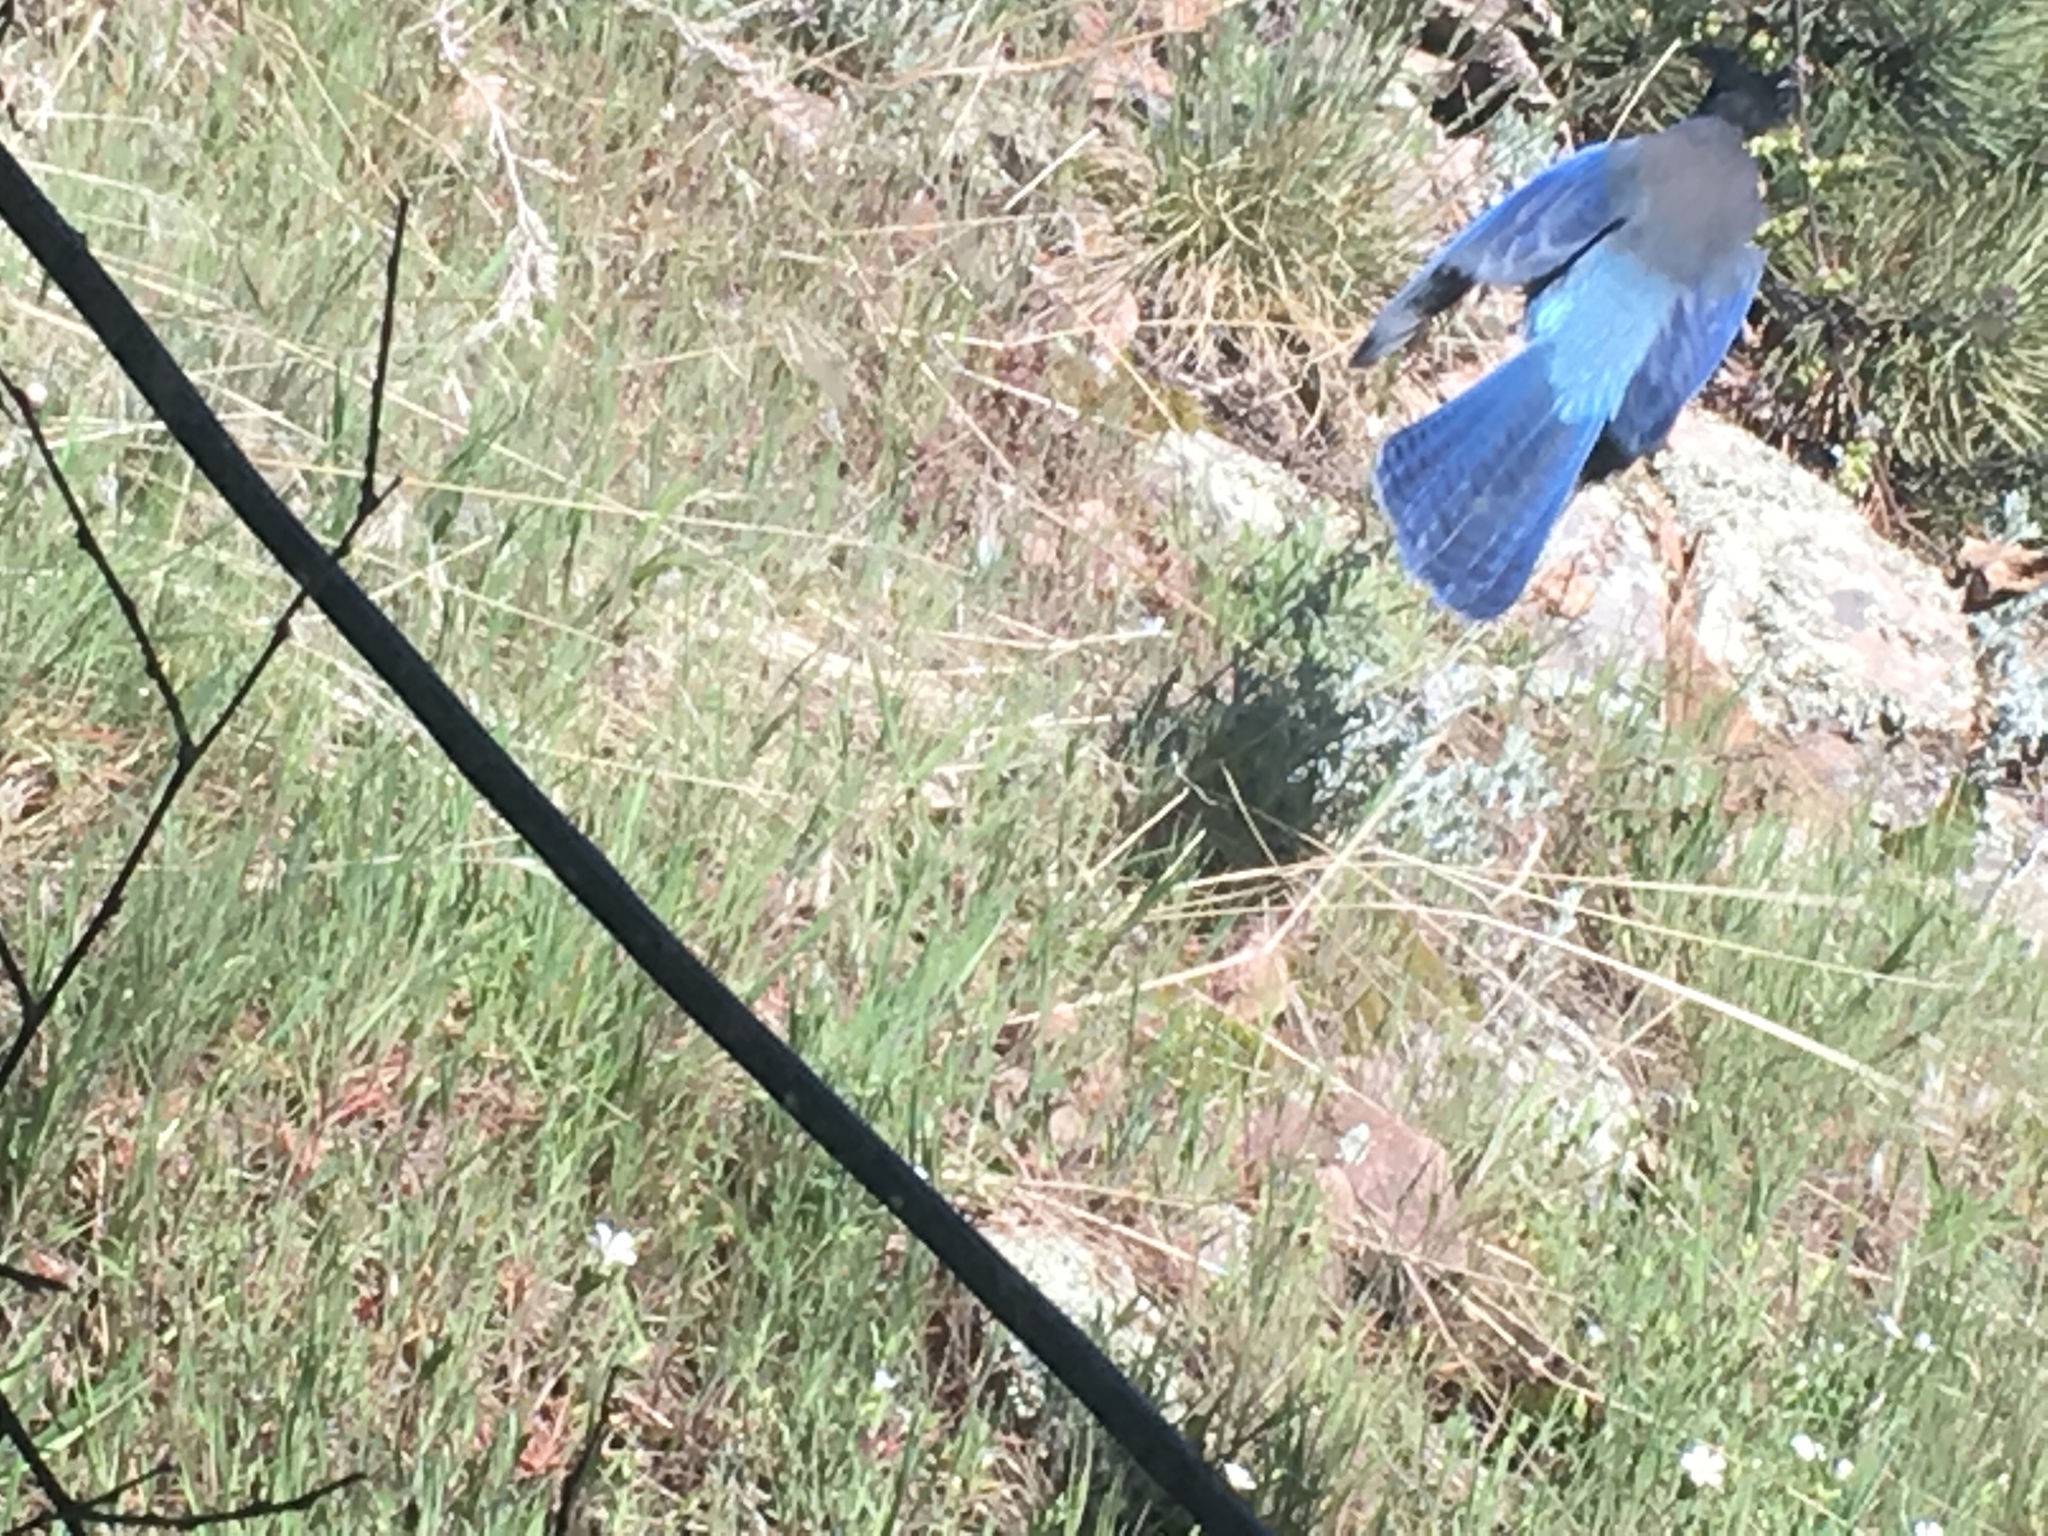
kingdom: Animalia
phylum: Chordata
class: Aves
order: Passeriformes
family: Corvidae
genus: Cyanocitta
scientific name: Cyanocitta stelleri
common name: Steller's jay
